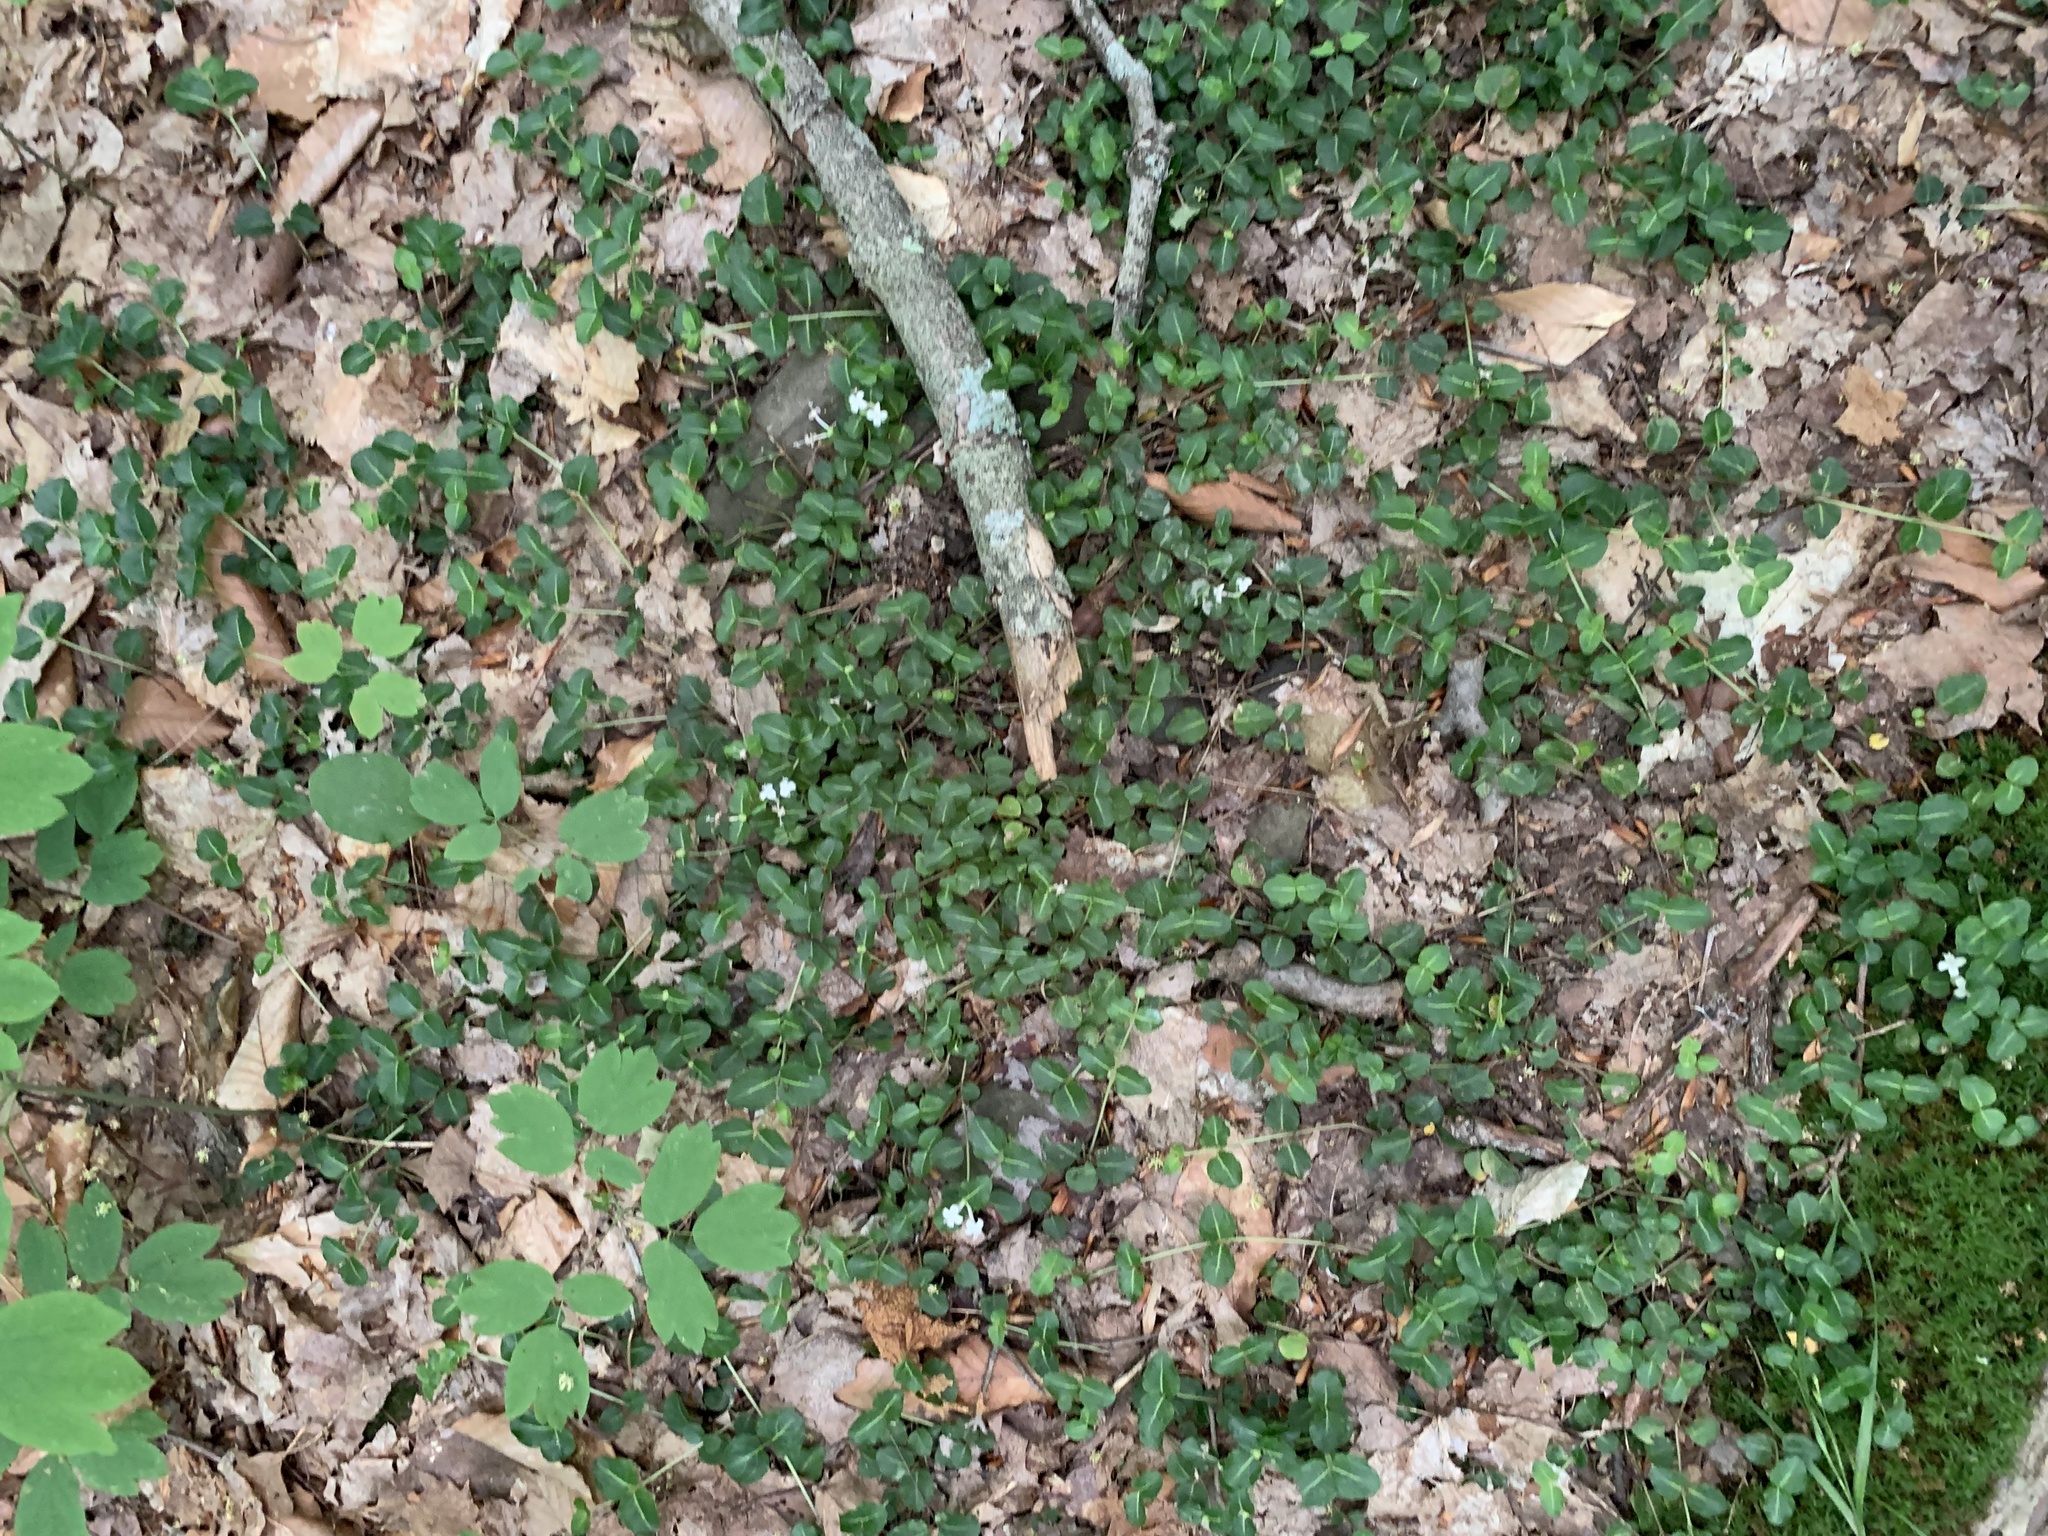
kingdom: Plantae
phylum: Tracheophyta
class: Magnoliopsida
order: Gentianales
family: Rubiaceae
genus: Mitchella
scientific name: Mitchella repens
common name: Partridge-berry
